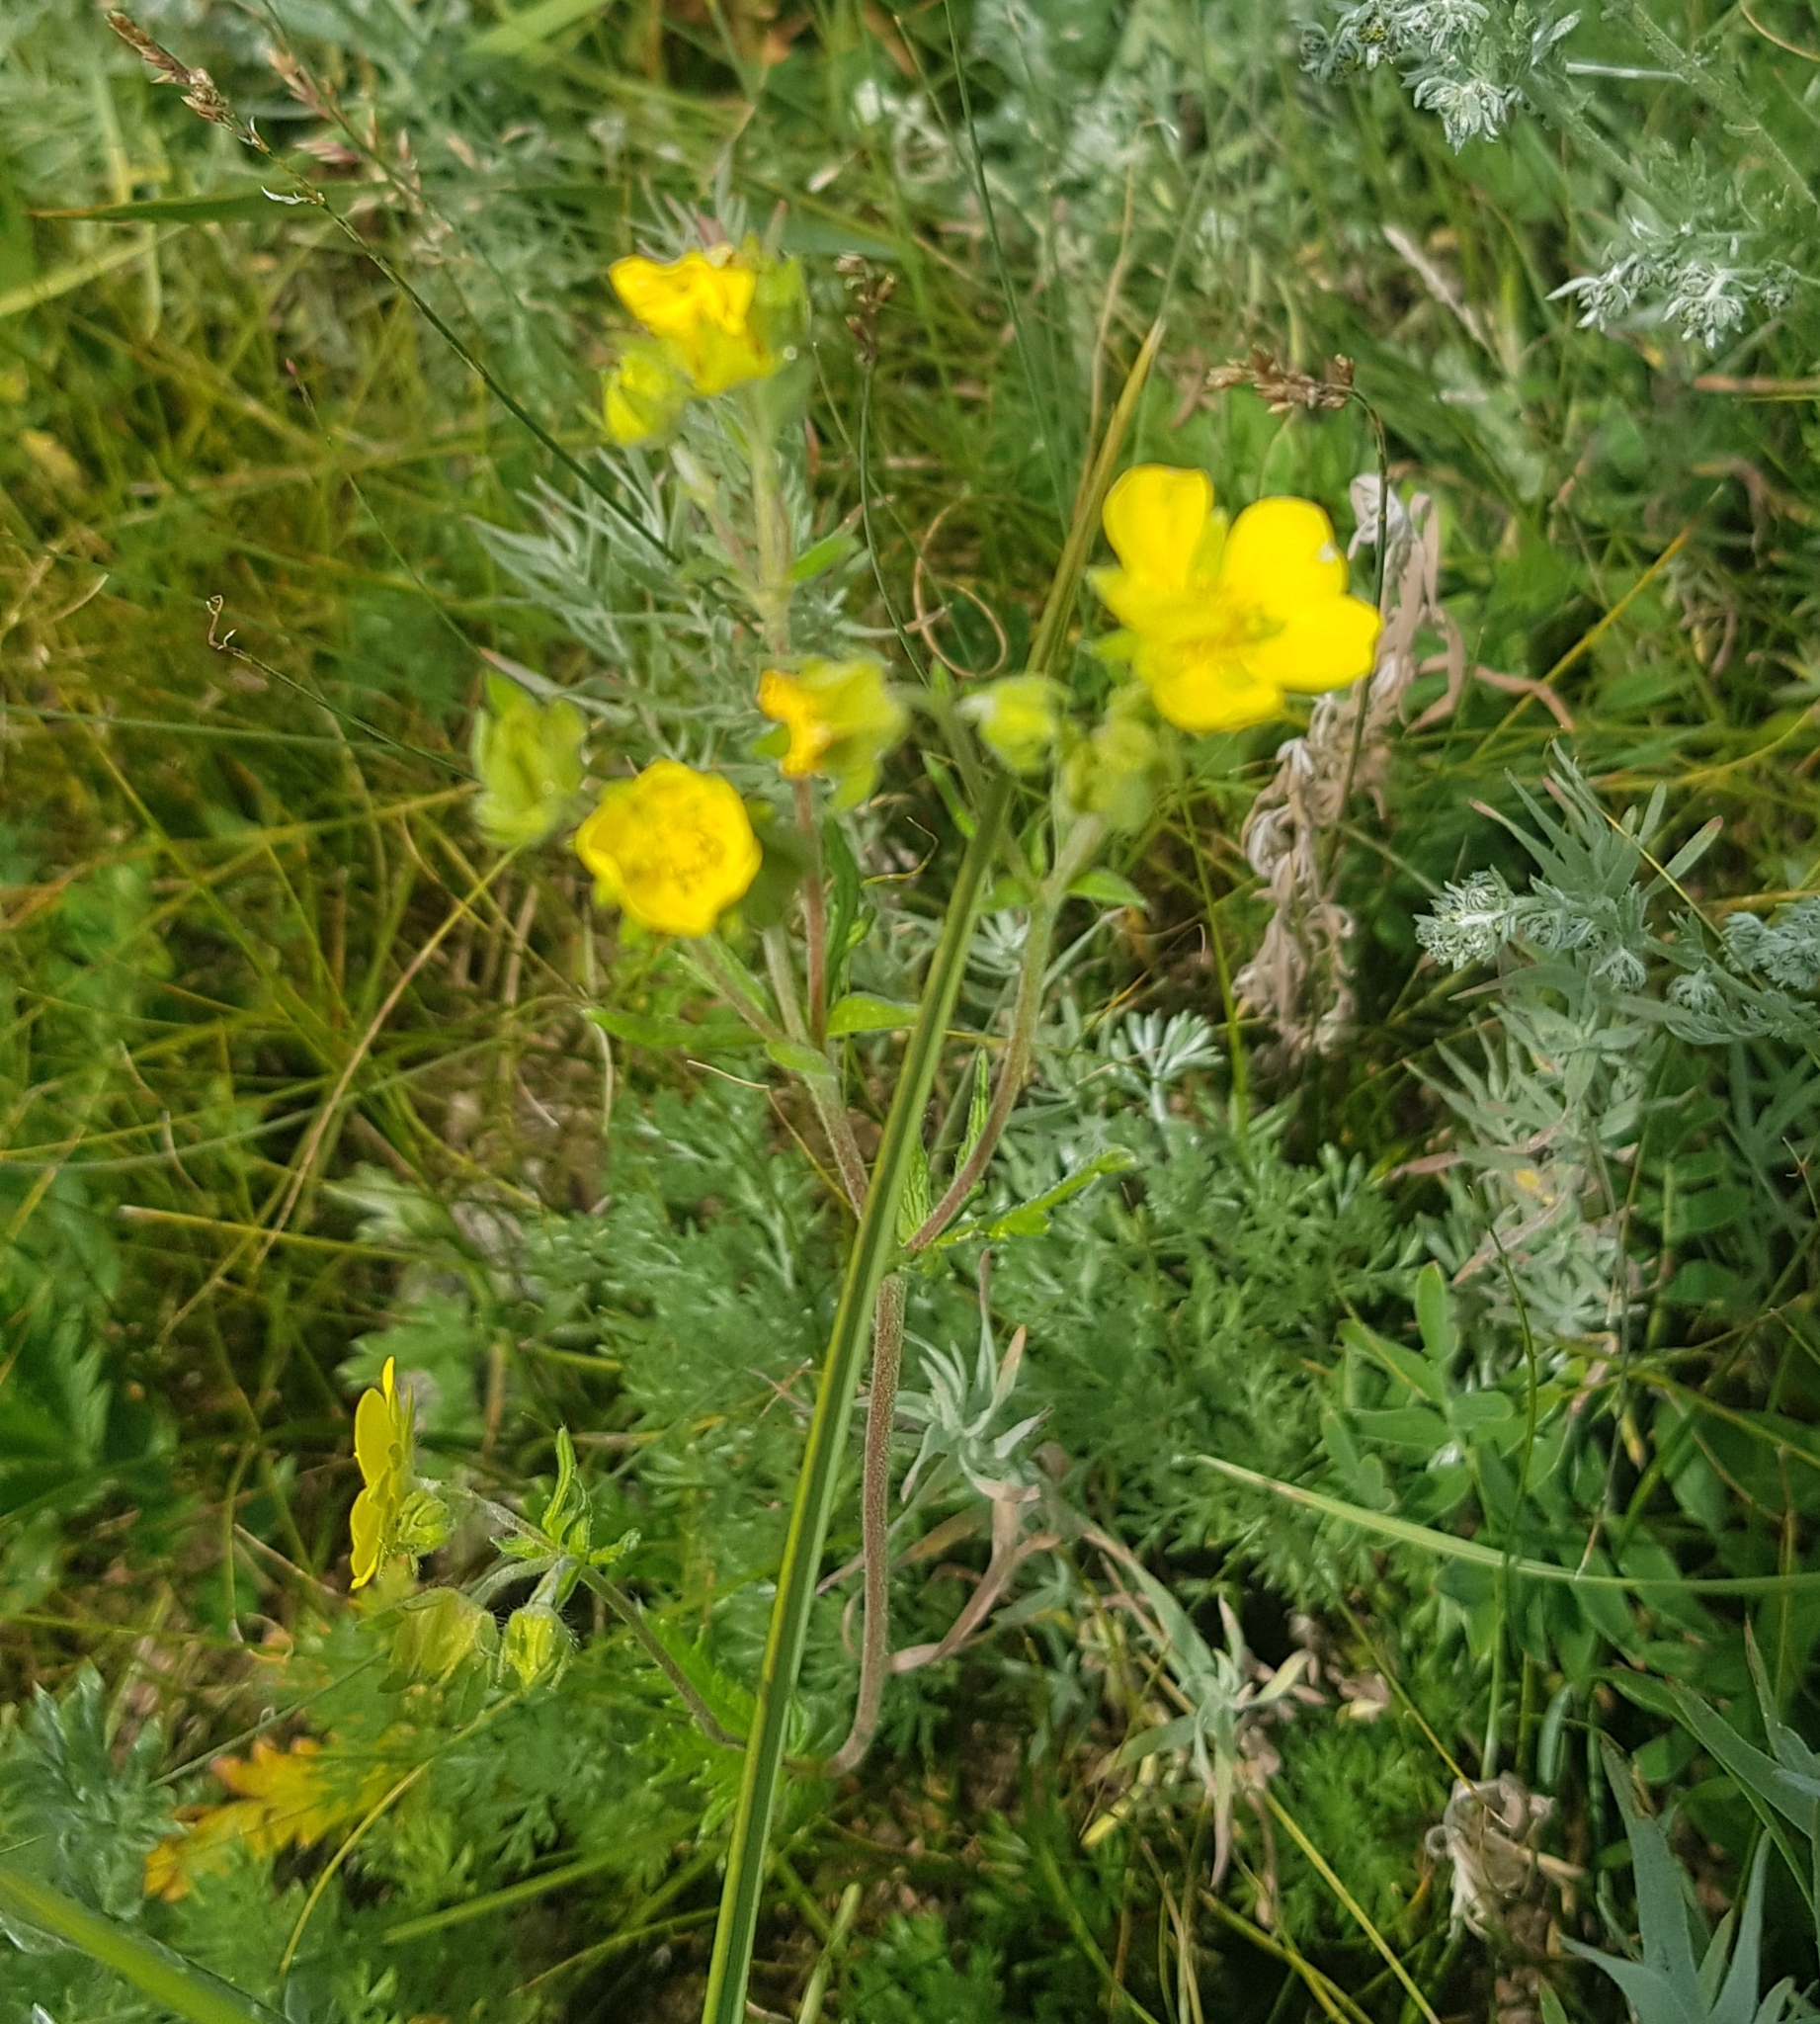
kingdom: Plantae
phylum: Tracheophyta
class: Magnoliopsida
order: Rosales
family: Rosaceae
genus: Potentilla
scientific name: Potentilla tergemina
